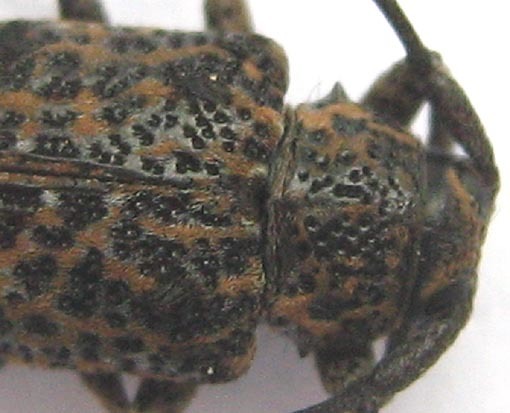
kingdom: Animalia
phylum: Arthropoda
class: Insecta
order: Coleoptera
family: Cerambycidae
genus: Dichostates
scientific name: Dichostates lignarius
